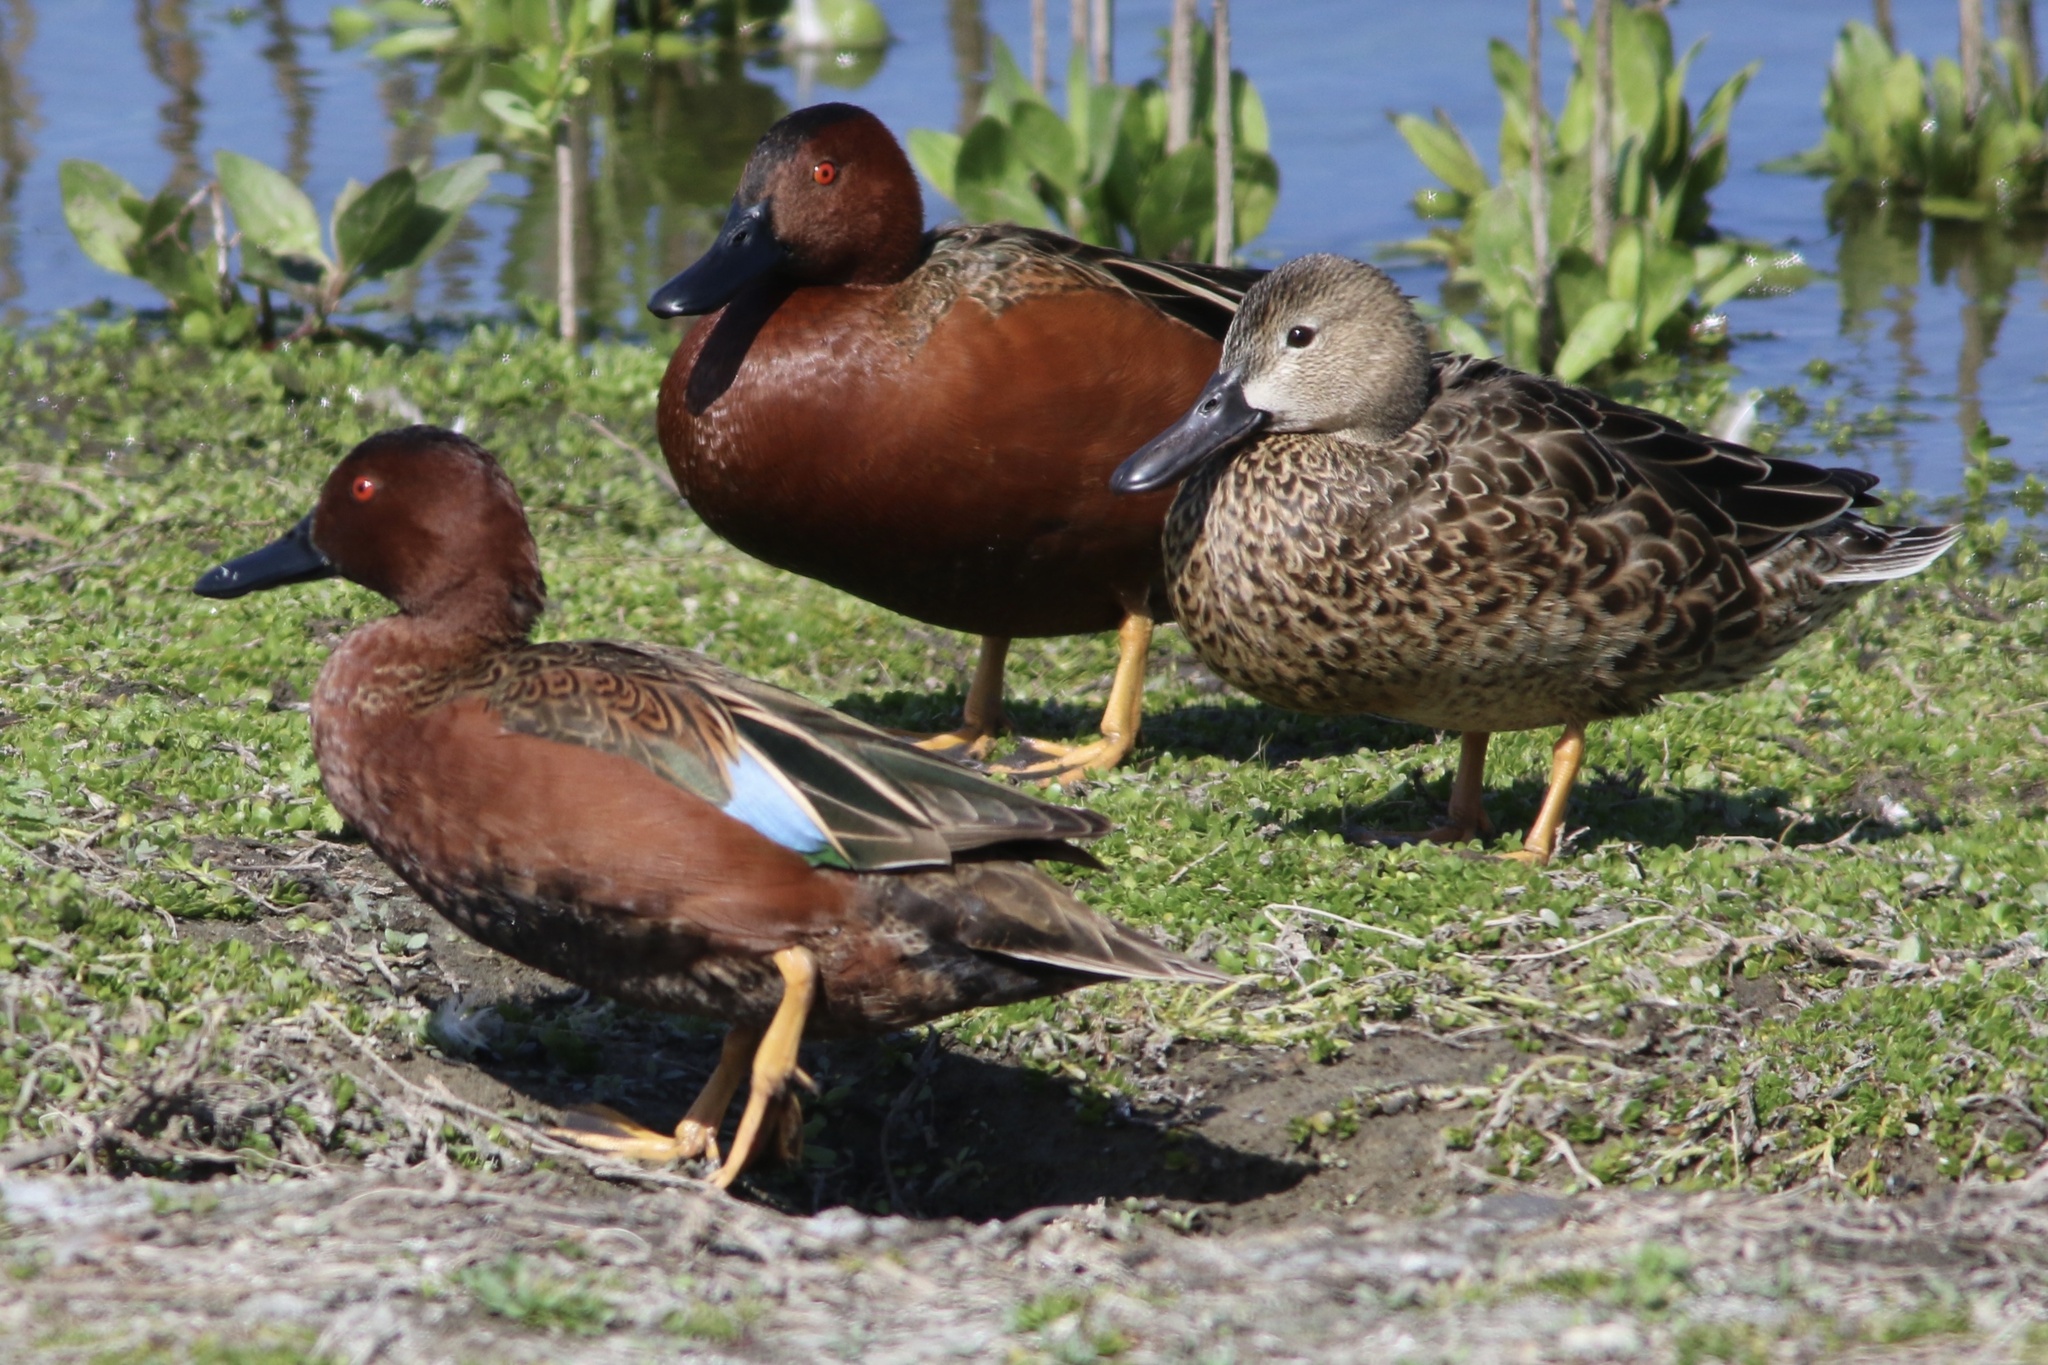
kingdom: Animalia
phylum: Chordata
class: Aves
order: Anseriformes
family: Anatidae
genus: Spatula
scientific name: Spatula cyanoptera
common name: Cinnamon teal
